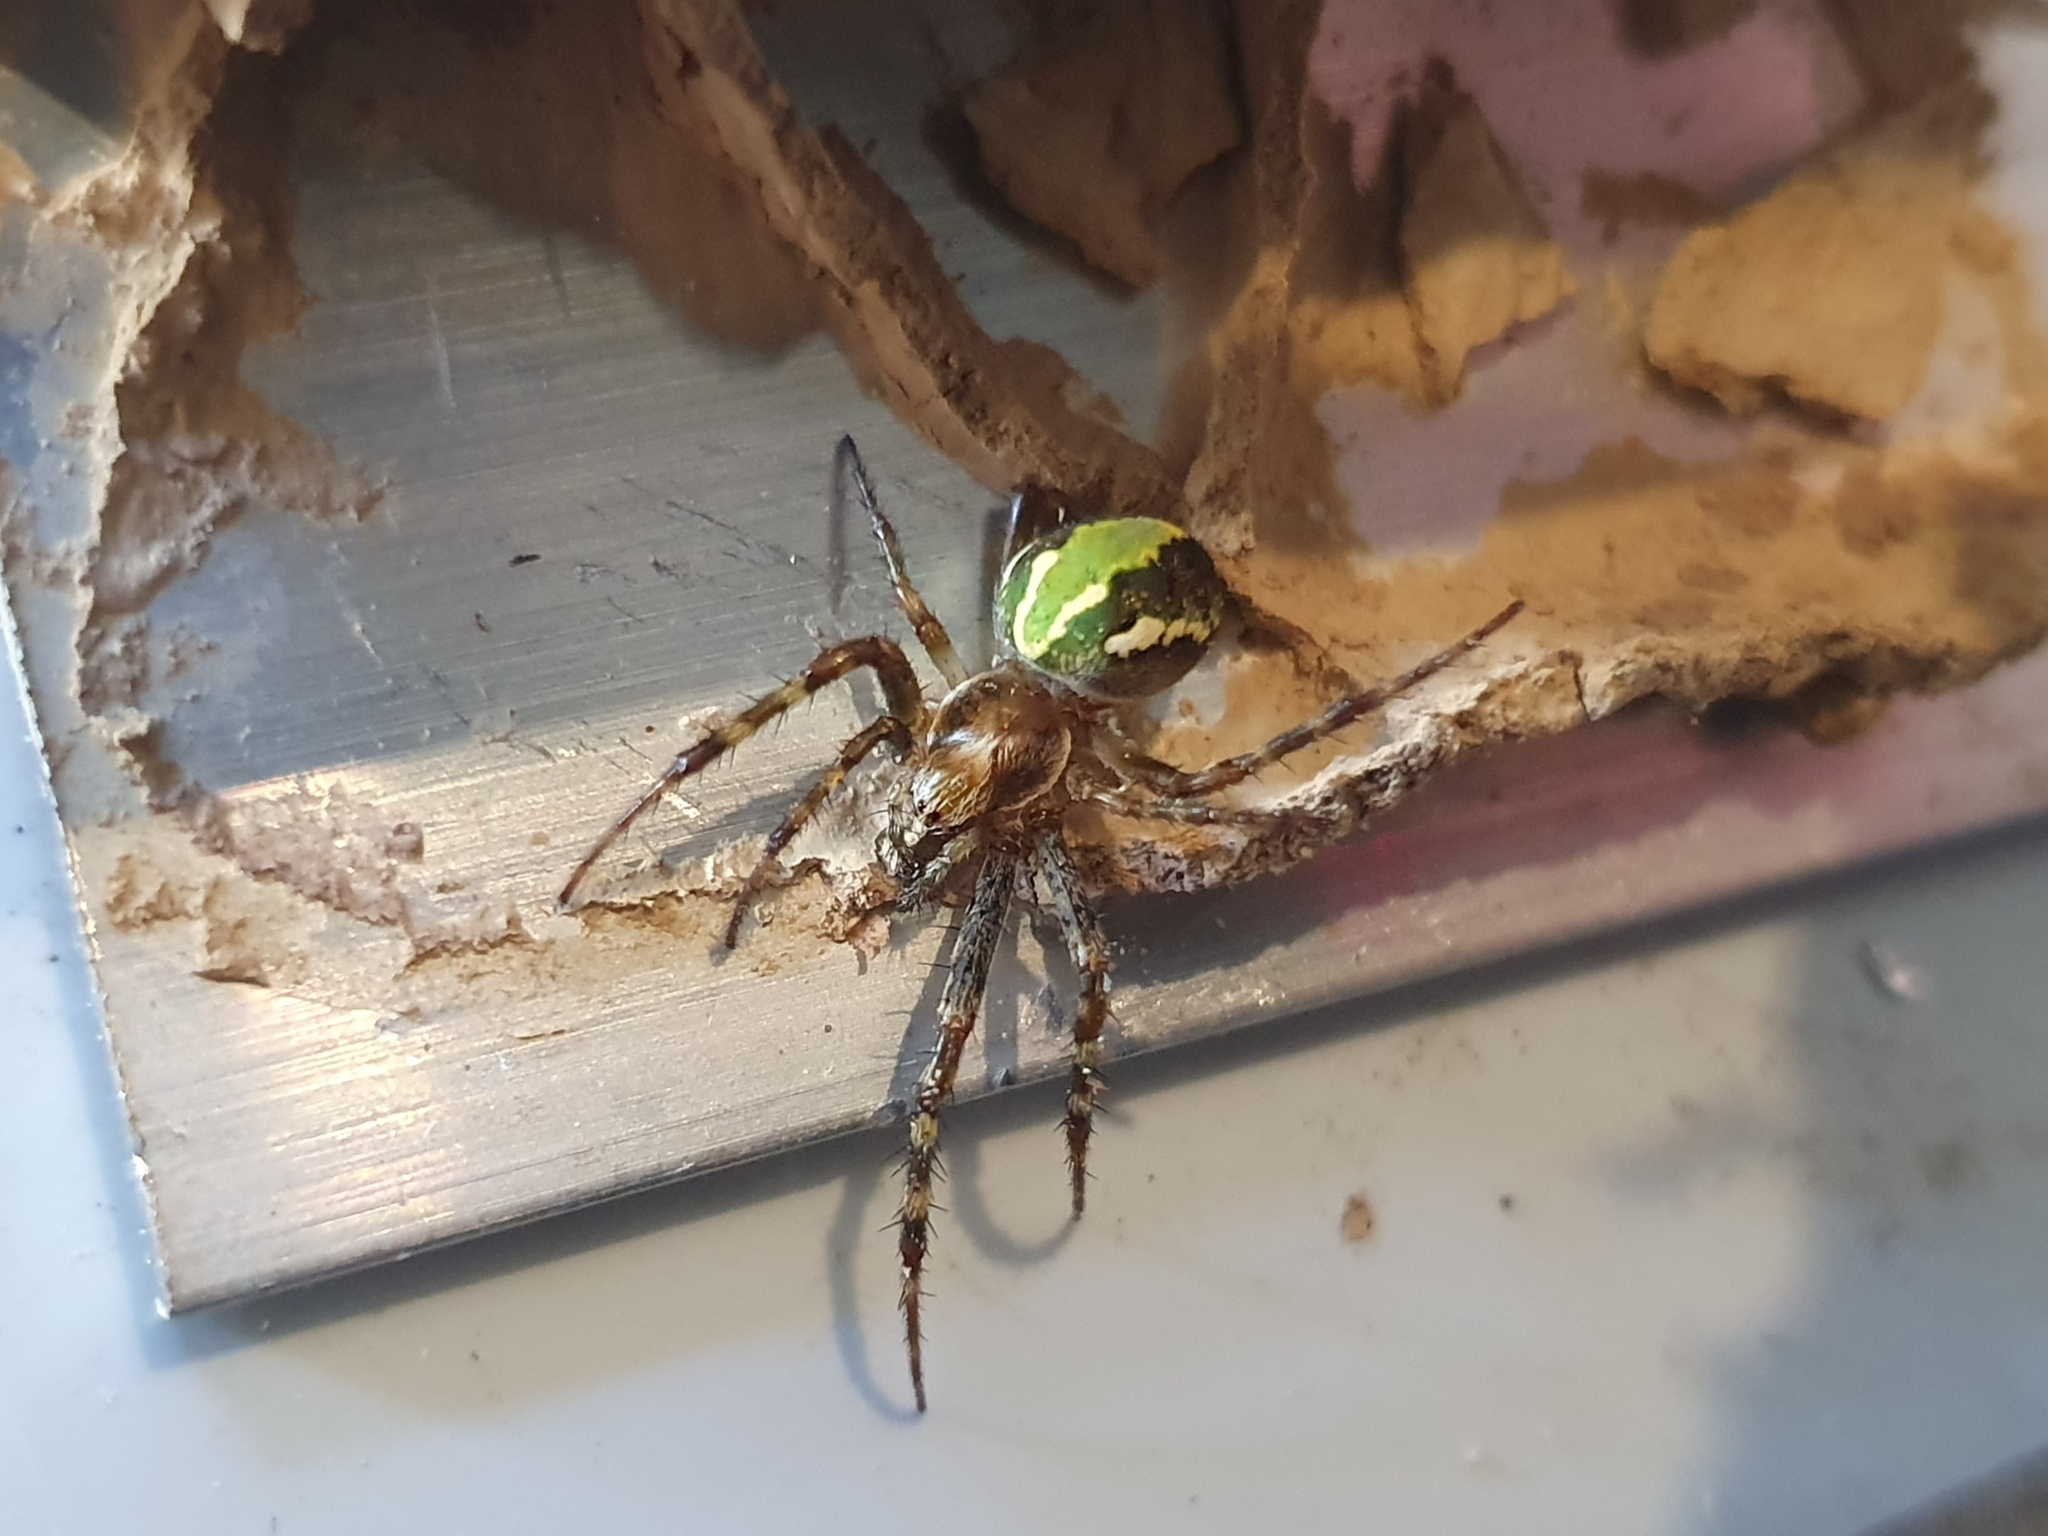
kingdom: Animalia
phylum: Arthropoda
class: Arachnida
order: Araneae
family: Araneidae
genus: Novaranea
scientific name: Novaranea queribunda
